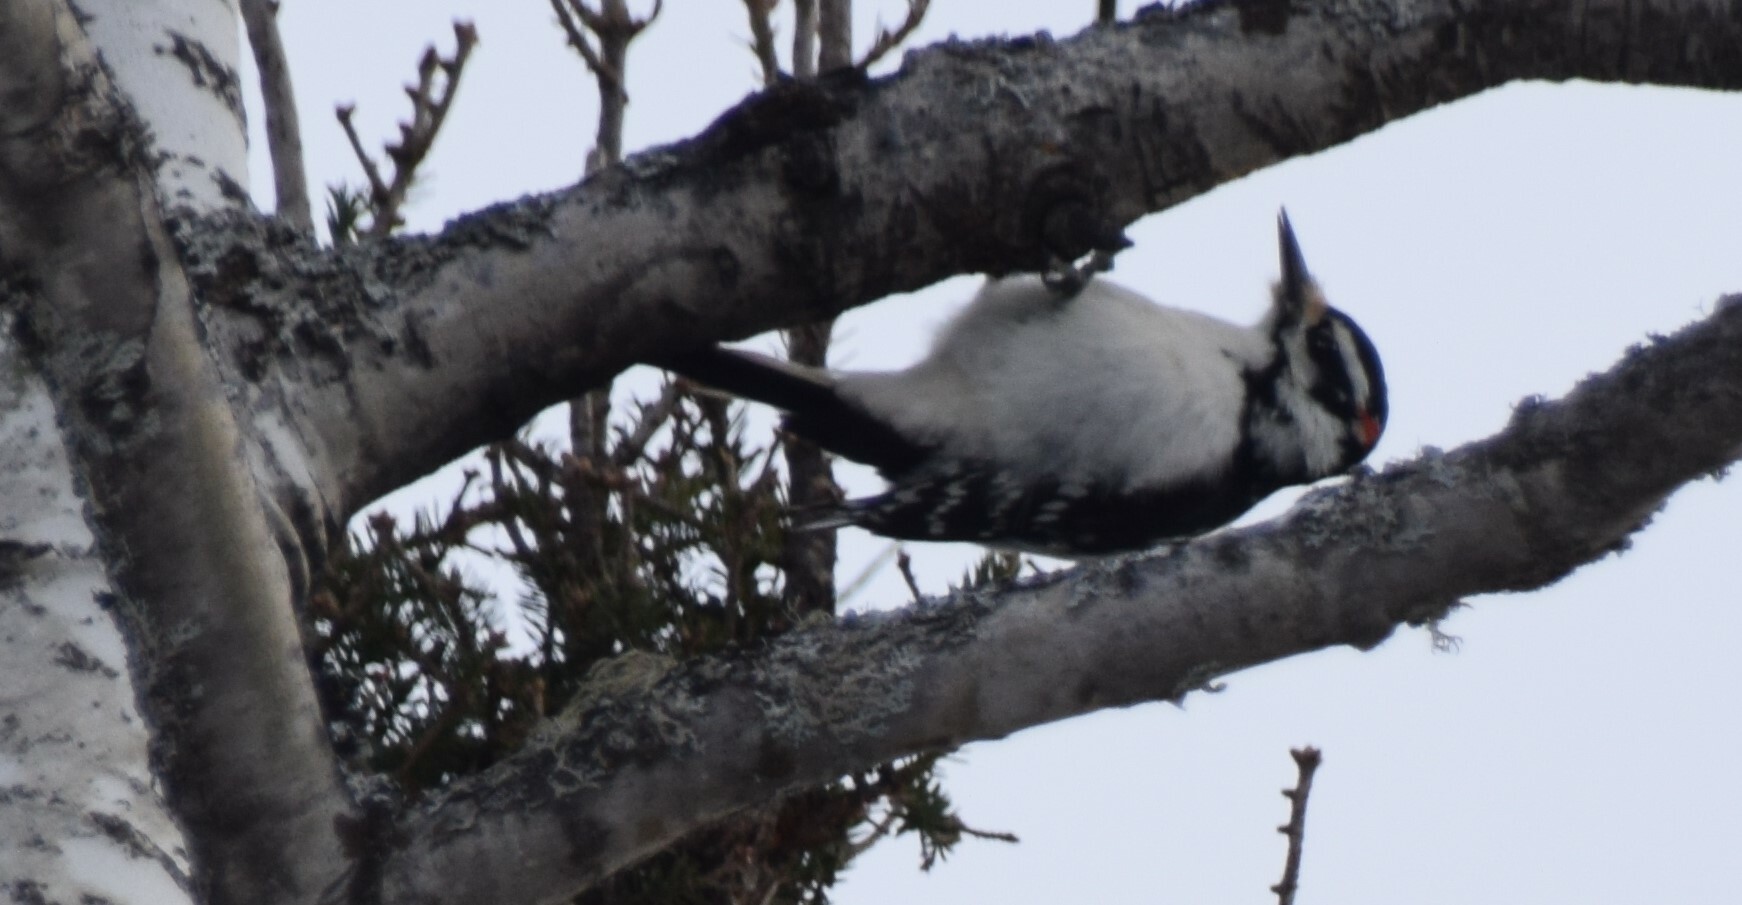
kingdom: Animalia
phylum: Chordata
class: Aves
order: Piciformes
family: Picidae
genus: Leuconotopicus
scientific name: Leuconotopicus villosus
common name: Hairy woodpecker
